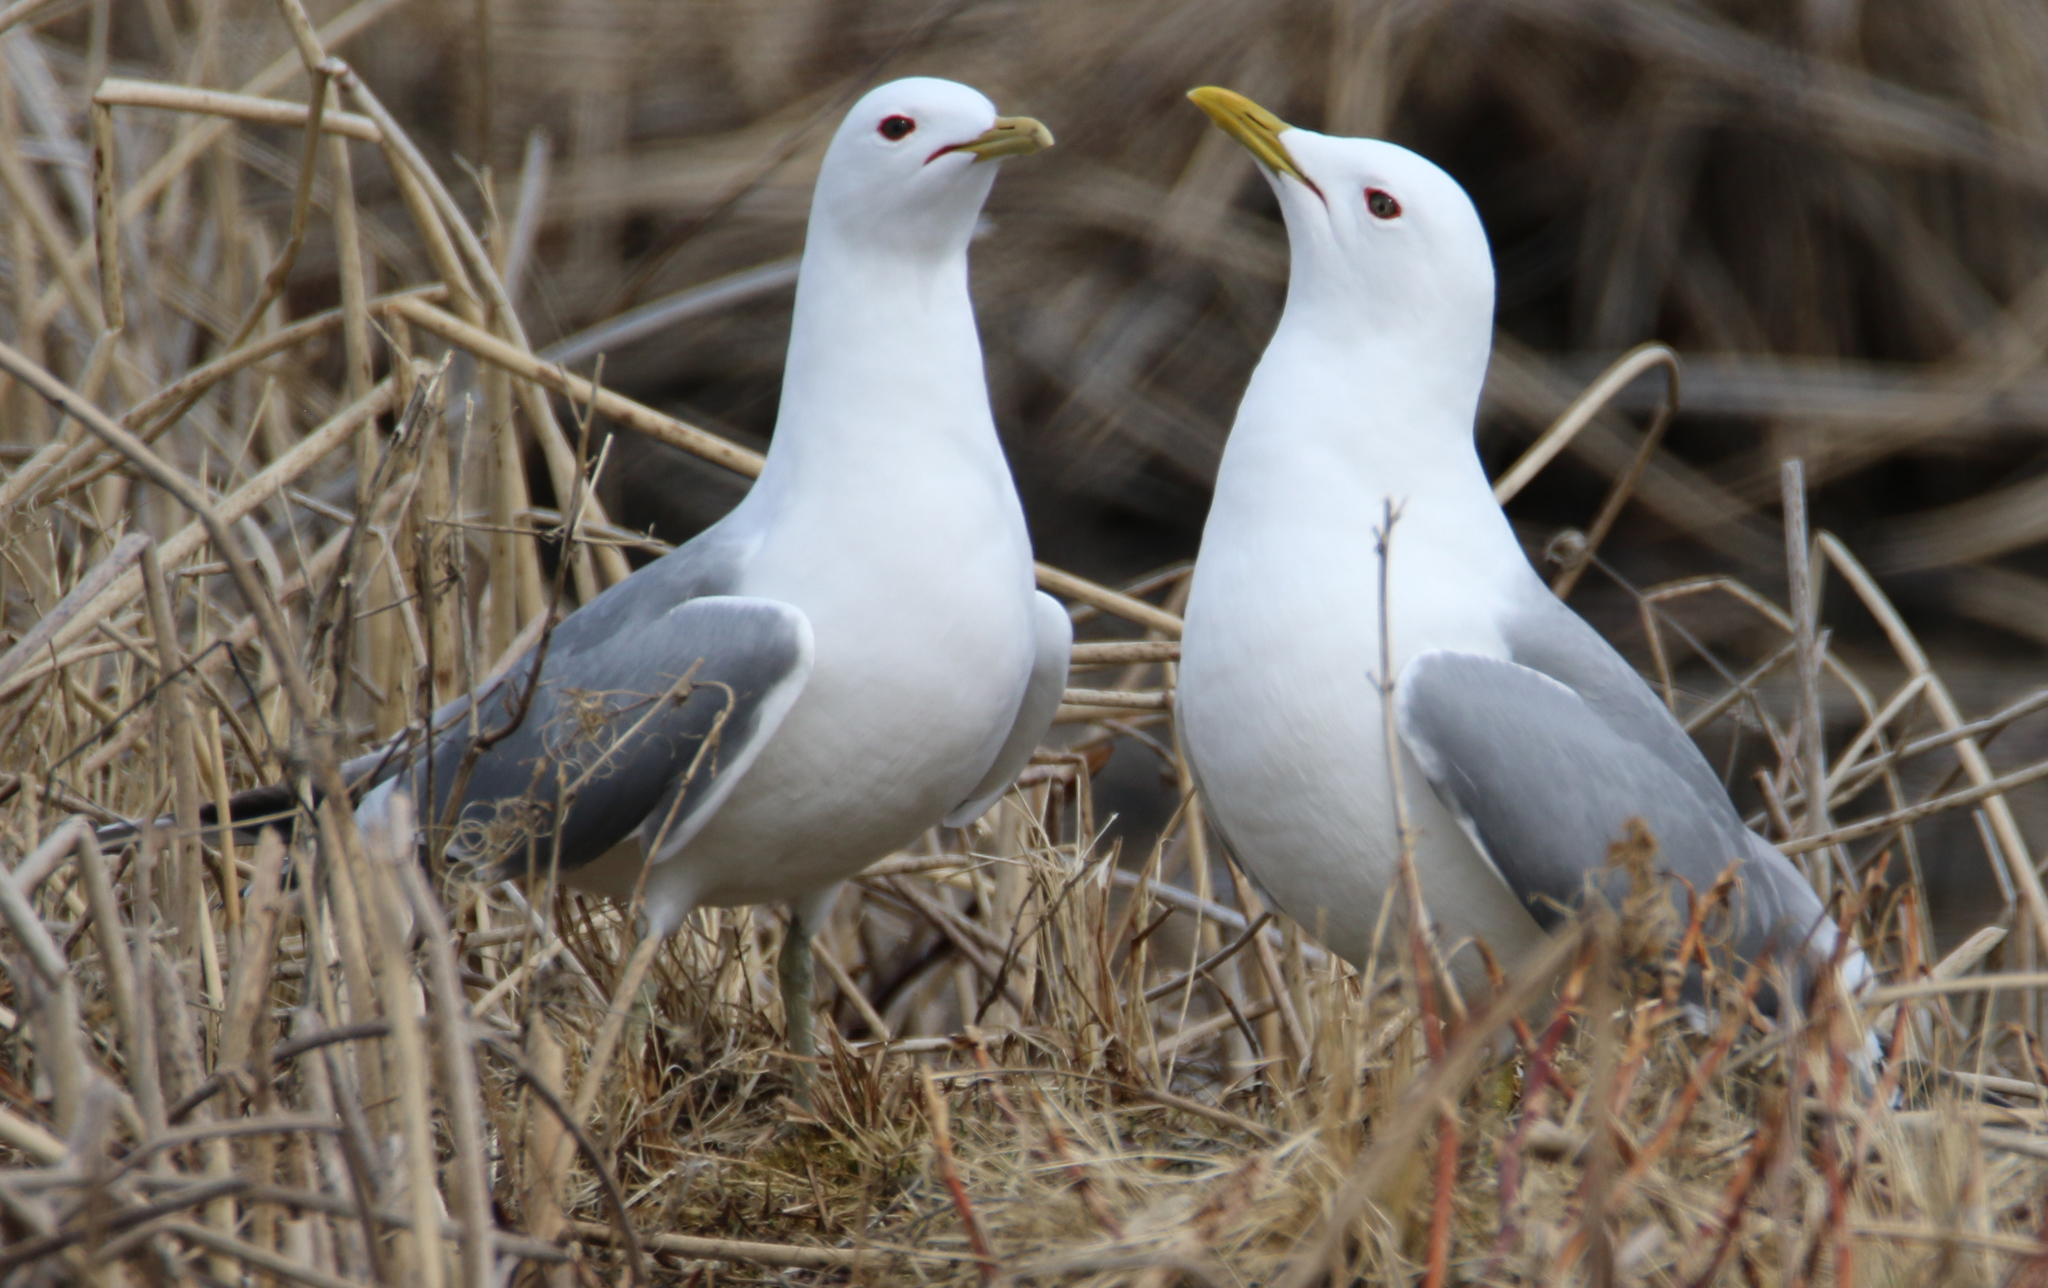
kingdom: Animalia
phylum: Chordata
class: Aves
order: Charadriiformes
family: Laridae
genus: Larus
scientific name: Larus brachyrhynchus
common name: Short-billed gull
